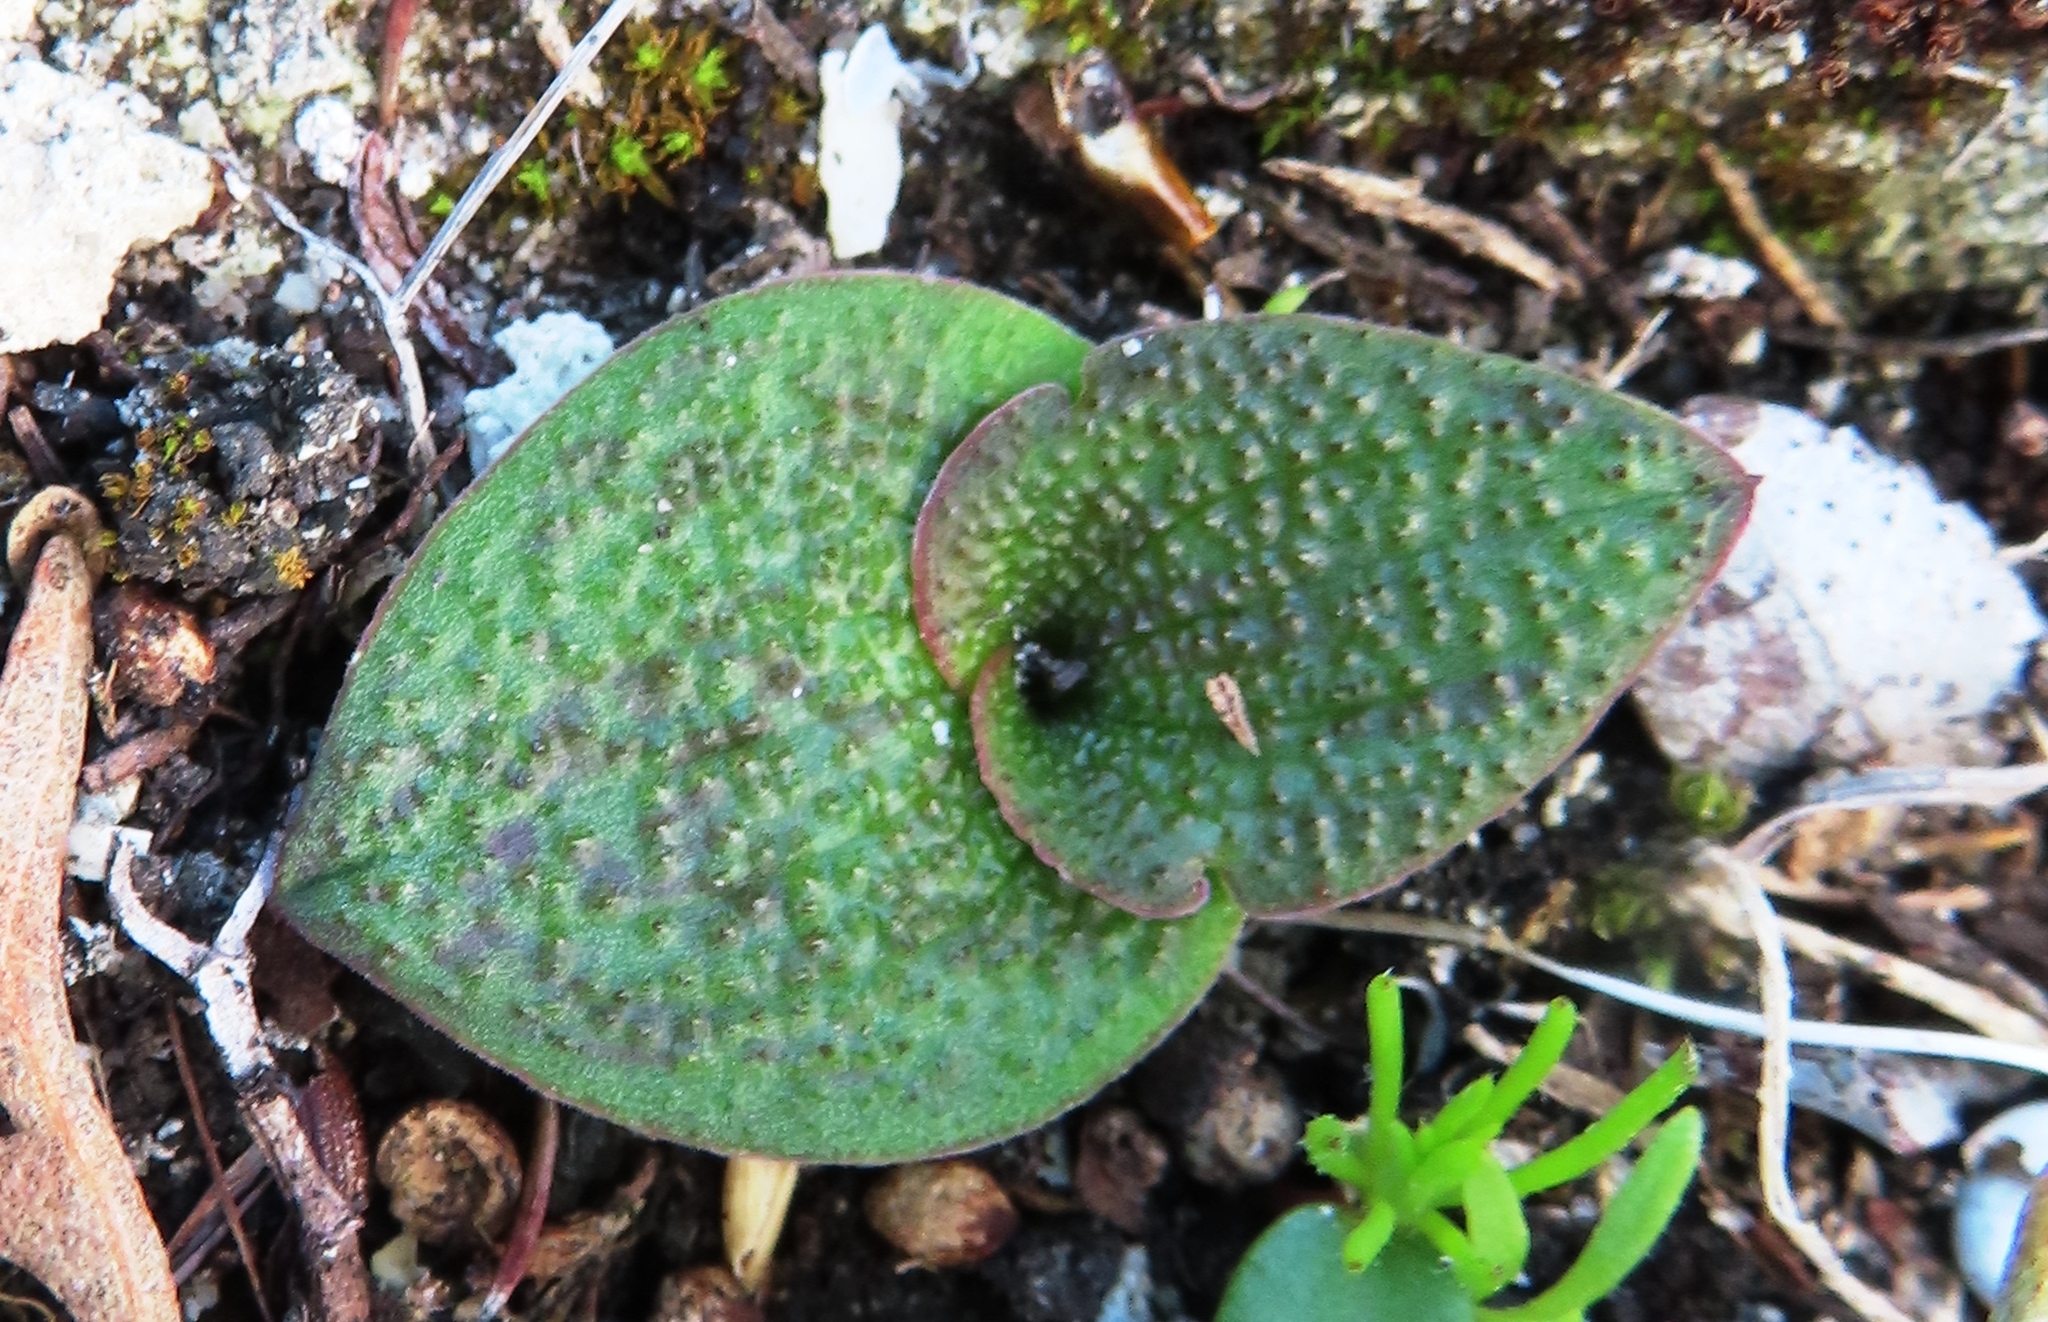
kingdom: Plantae
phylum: Tracheophyta
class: Liliopsida
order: Asparagales
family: Asparagaceae
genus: Massonia
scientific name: Massonia longipes
